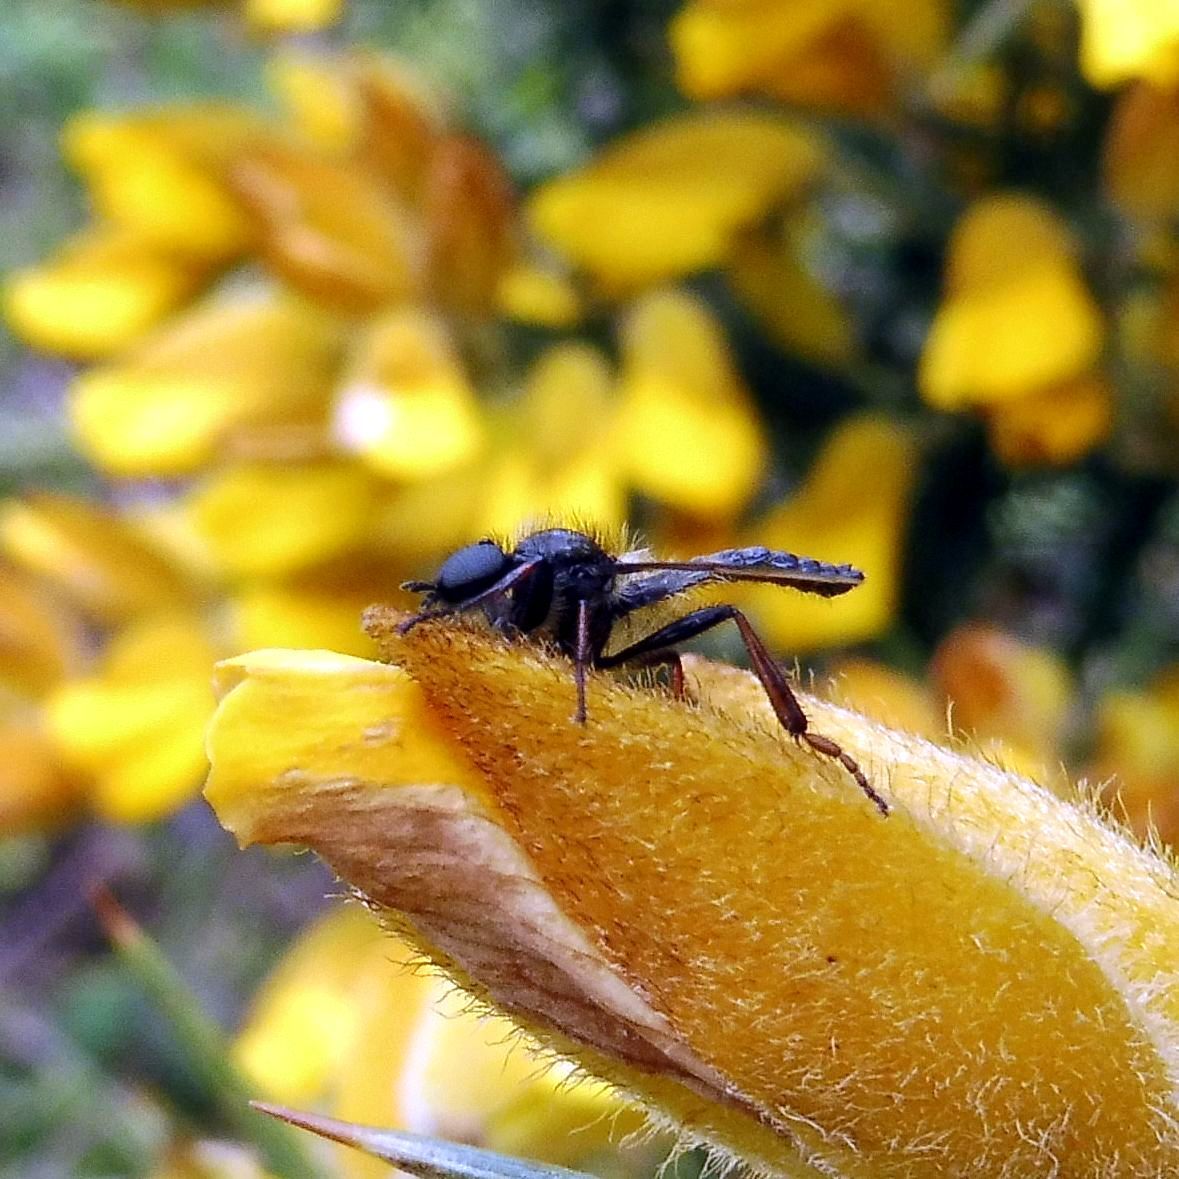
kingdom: Animalia
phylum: Arthropoda
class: Insecta
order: Diptera
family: Bibionidae
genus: Bibio
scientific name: Bibio lanigerus
